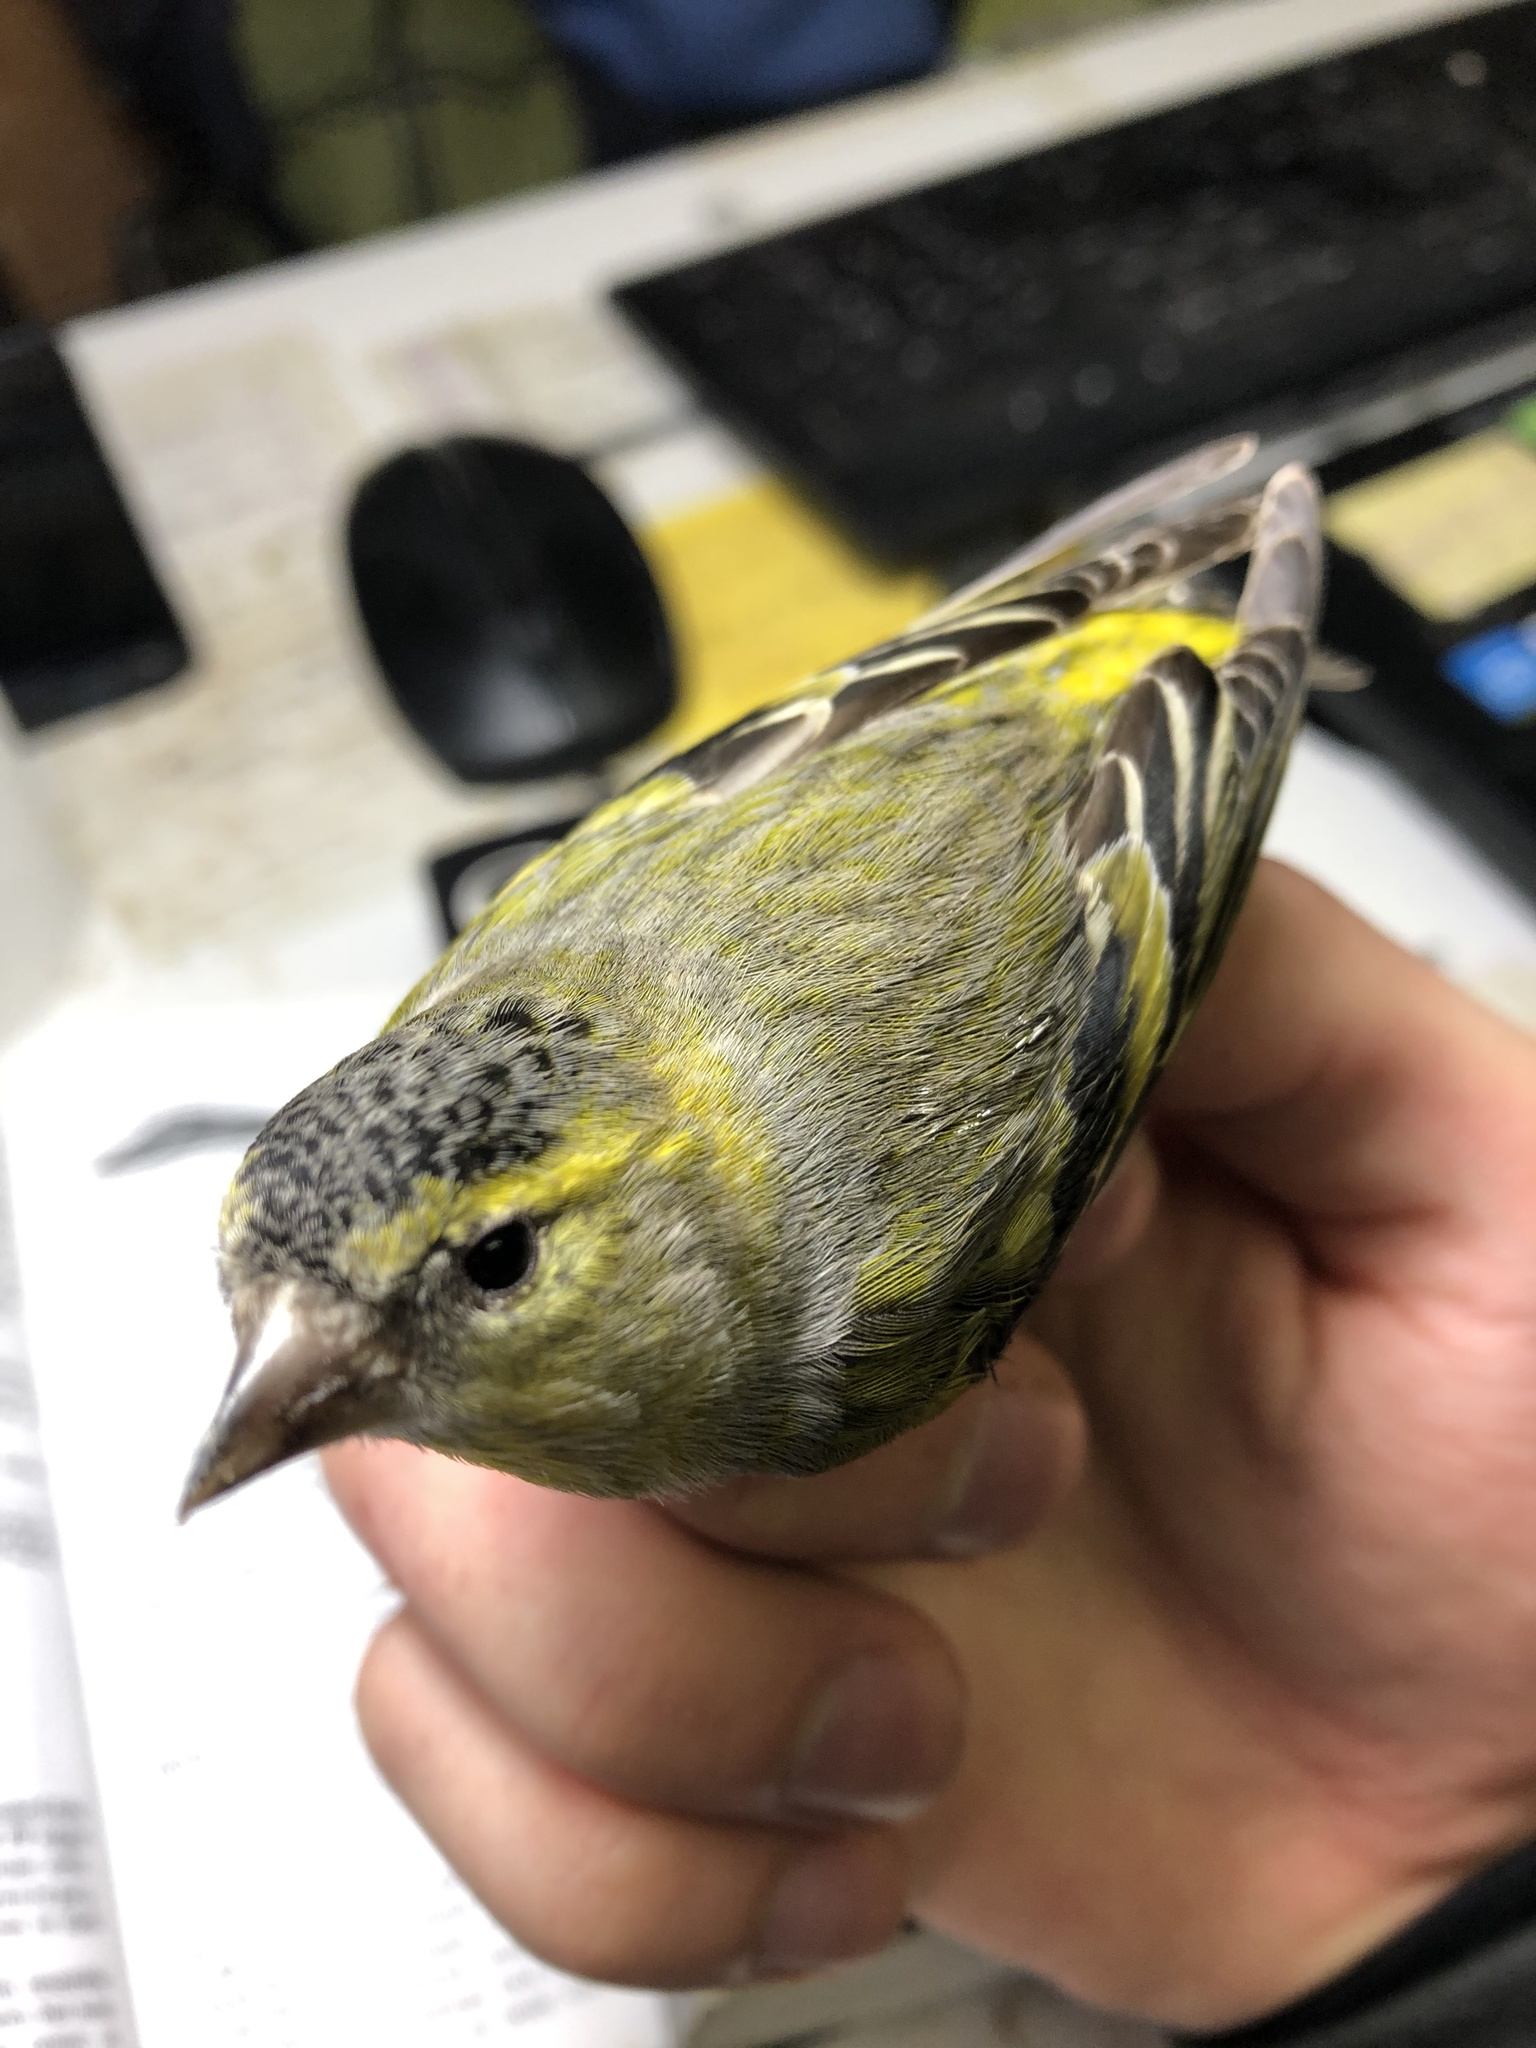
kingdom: Animalia
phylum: Chordata
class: Aves
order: Passeriformes
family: Fringillidae
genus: Spinus
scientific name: Spinus spinus
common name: Eurasian siskin
